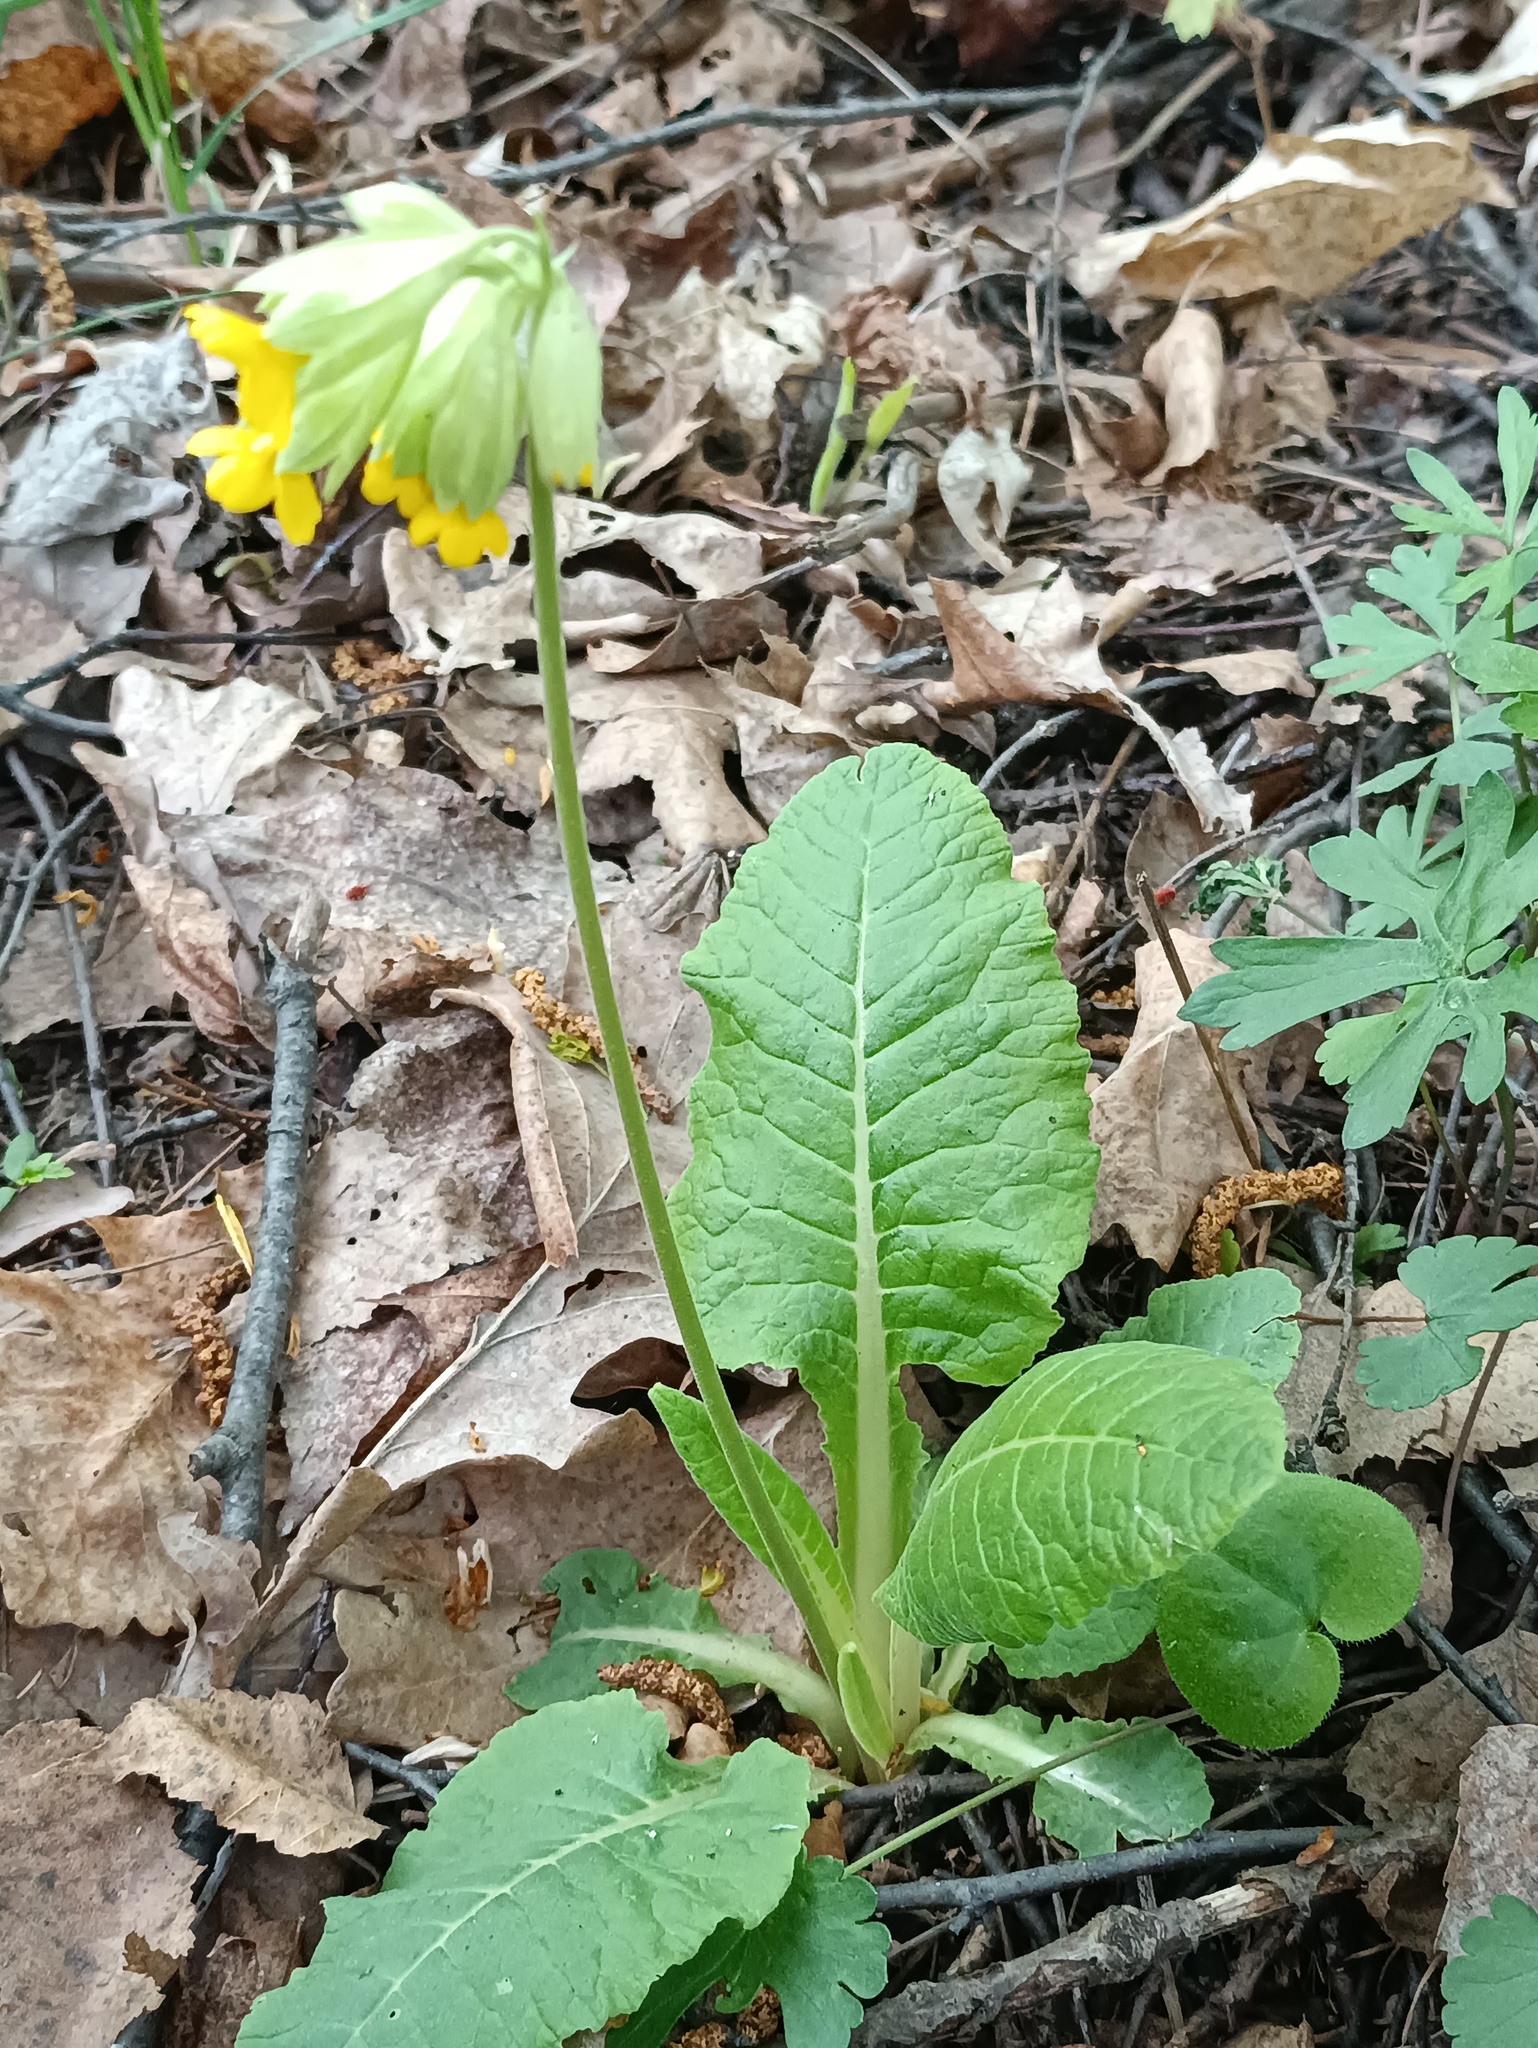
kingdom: Plantae
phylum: Tracheophyta
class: Magnoliopsida
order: Ericales
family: Primulaceae
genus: Primula
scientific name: Primula veris
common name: Cowslip
